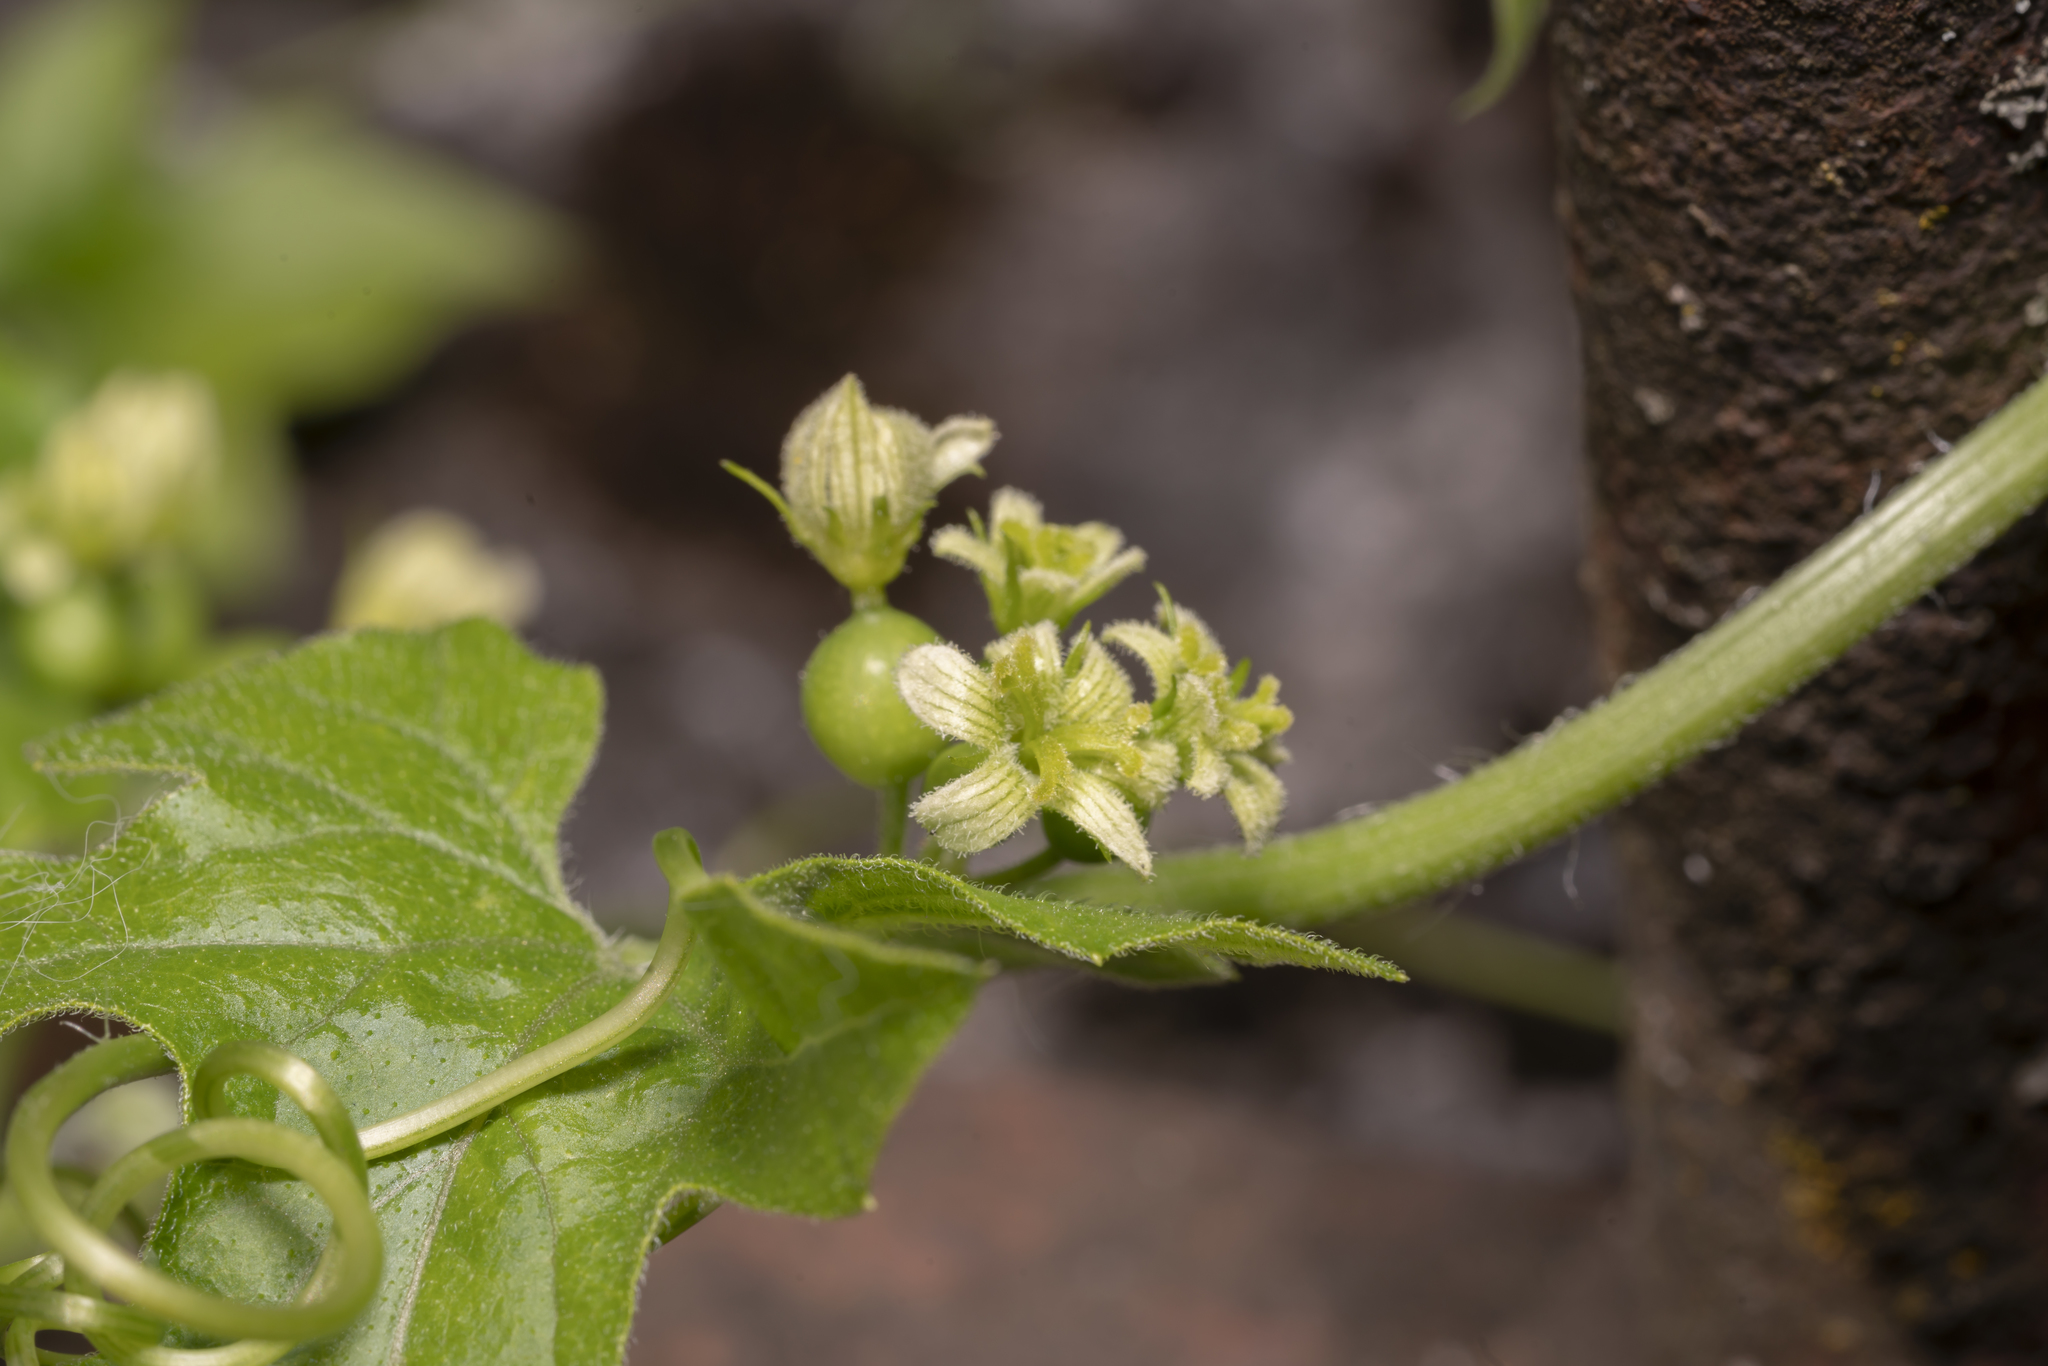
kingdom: Plantae
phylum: Tracheophyta
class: Magnoliopsida
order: Cucurbitales
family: Cucurbitaceae
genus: Bryonia
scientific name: Bryonia dioica
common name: White bryony
